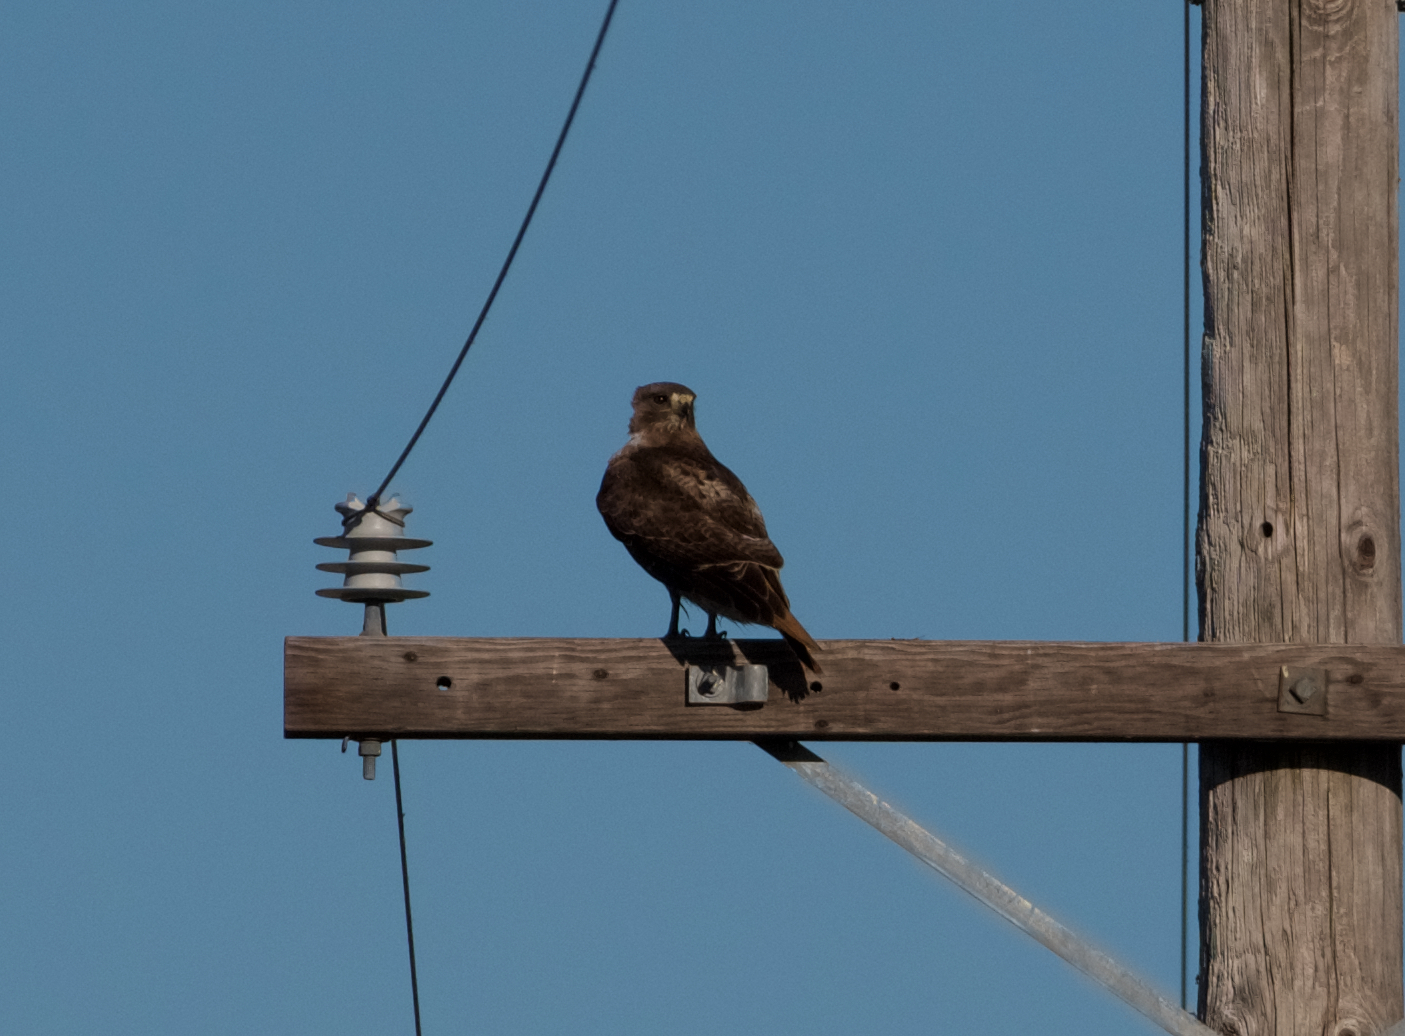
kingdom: Animalia
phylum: Chordata
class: Aves
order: Accipitriformes
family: Accipitridae
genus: Buteo
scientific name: Buteo jamaicensis
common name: Red-tailed hawk
